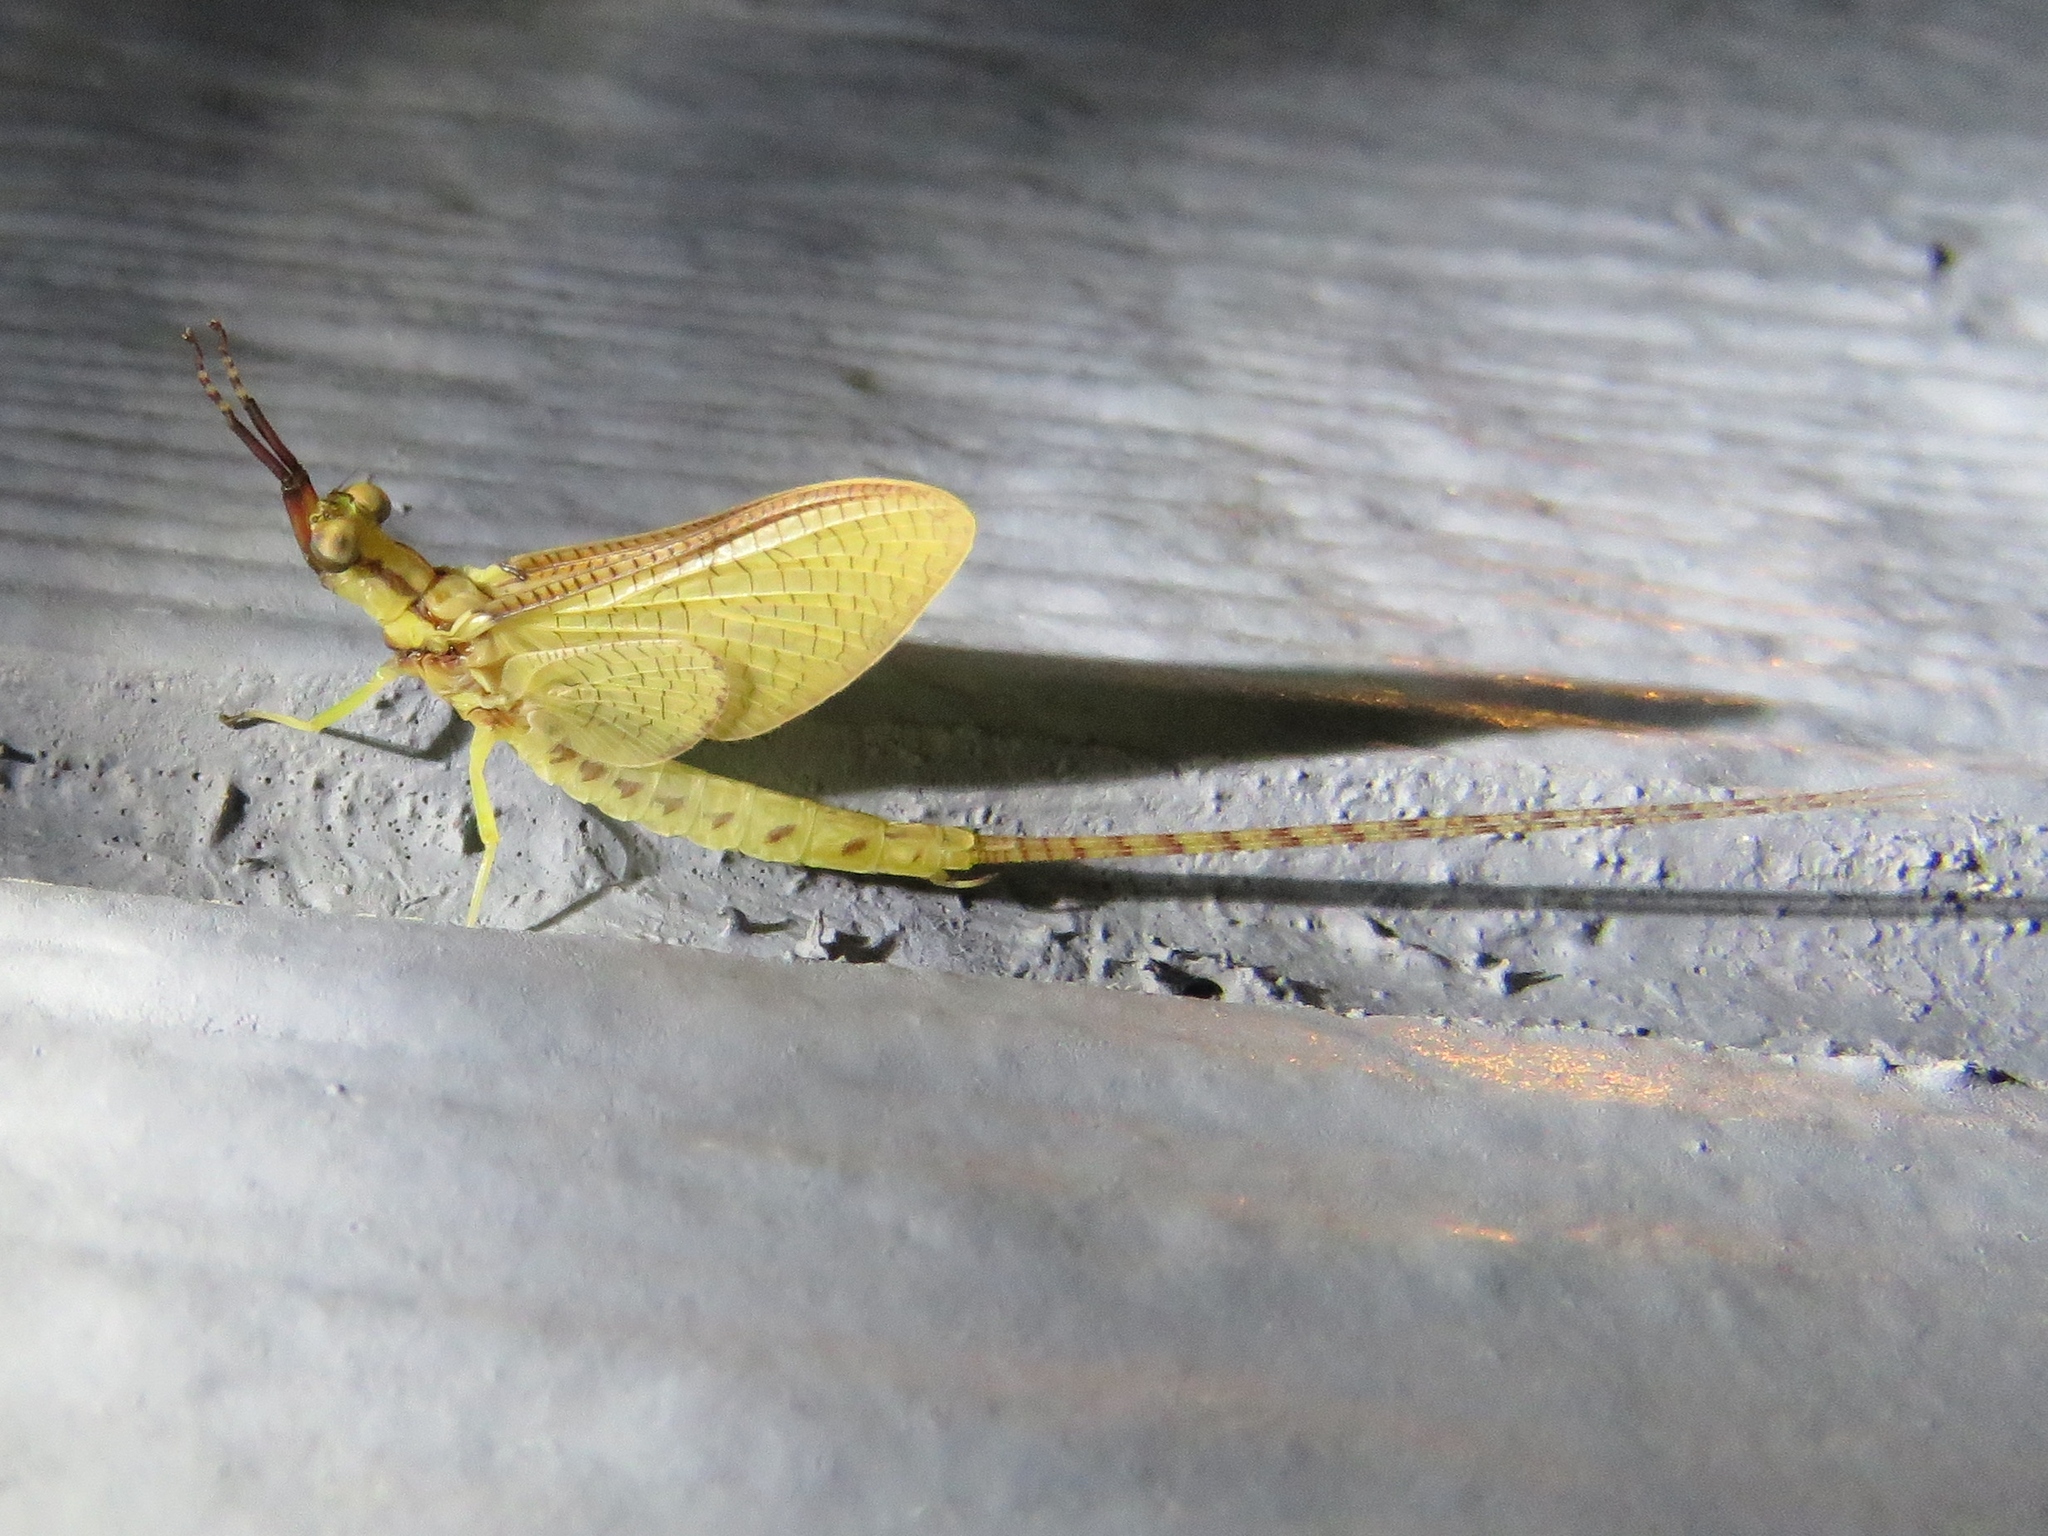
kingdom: Animalia
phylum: Arthropoda
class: Insecta
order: Ephemeroptera
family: Ephemeridae
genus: Hexagenia
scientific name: Hexagenia limbata
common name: Giant mayfly
